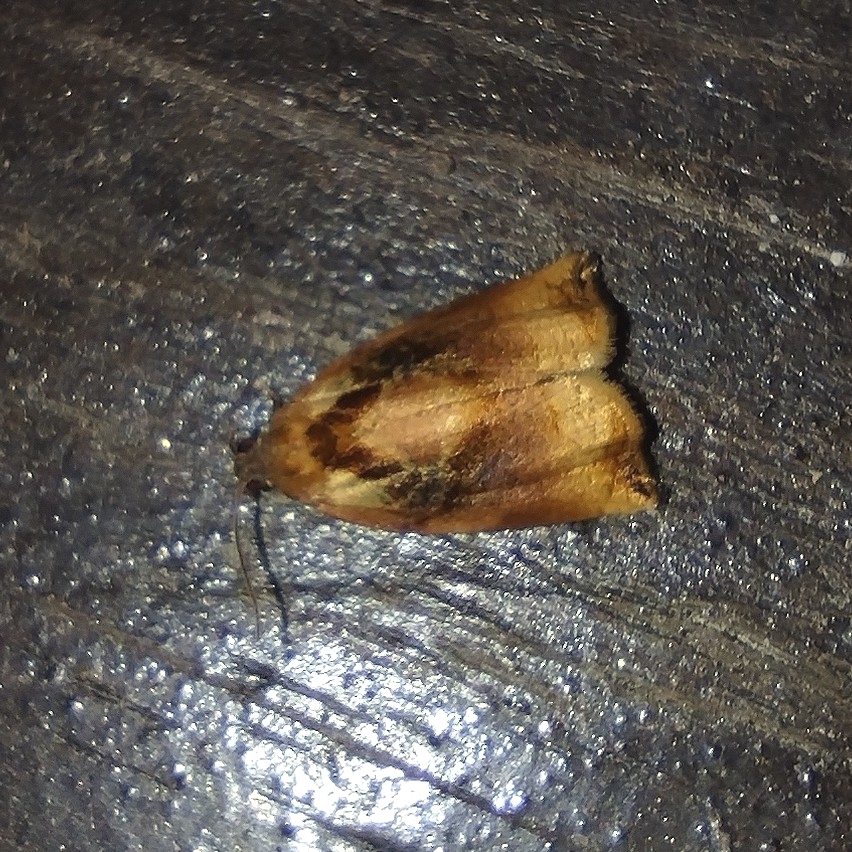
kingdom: Animalia
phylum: Arthropoda
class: Insecta
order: Lepidoptera
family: Tortricidae
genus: Archips
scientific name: Archips podana
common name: Large fruit-tree tortrix
